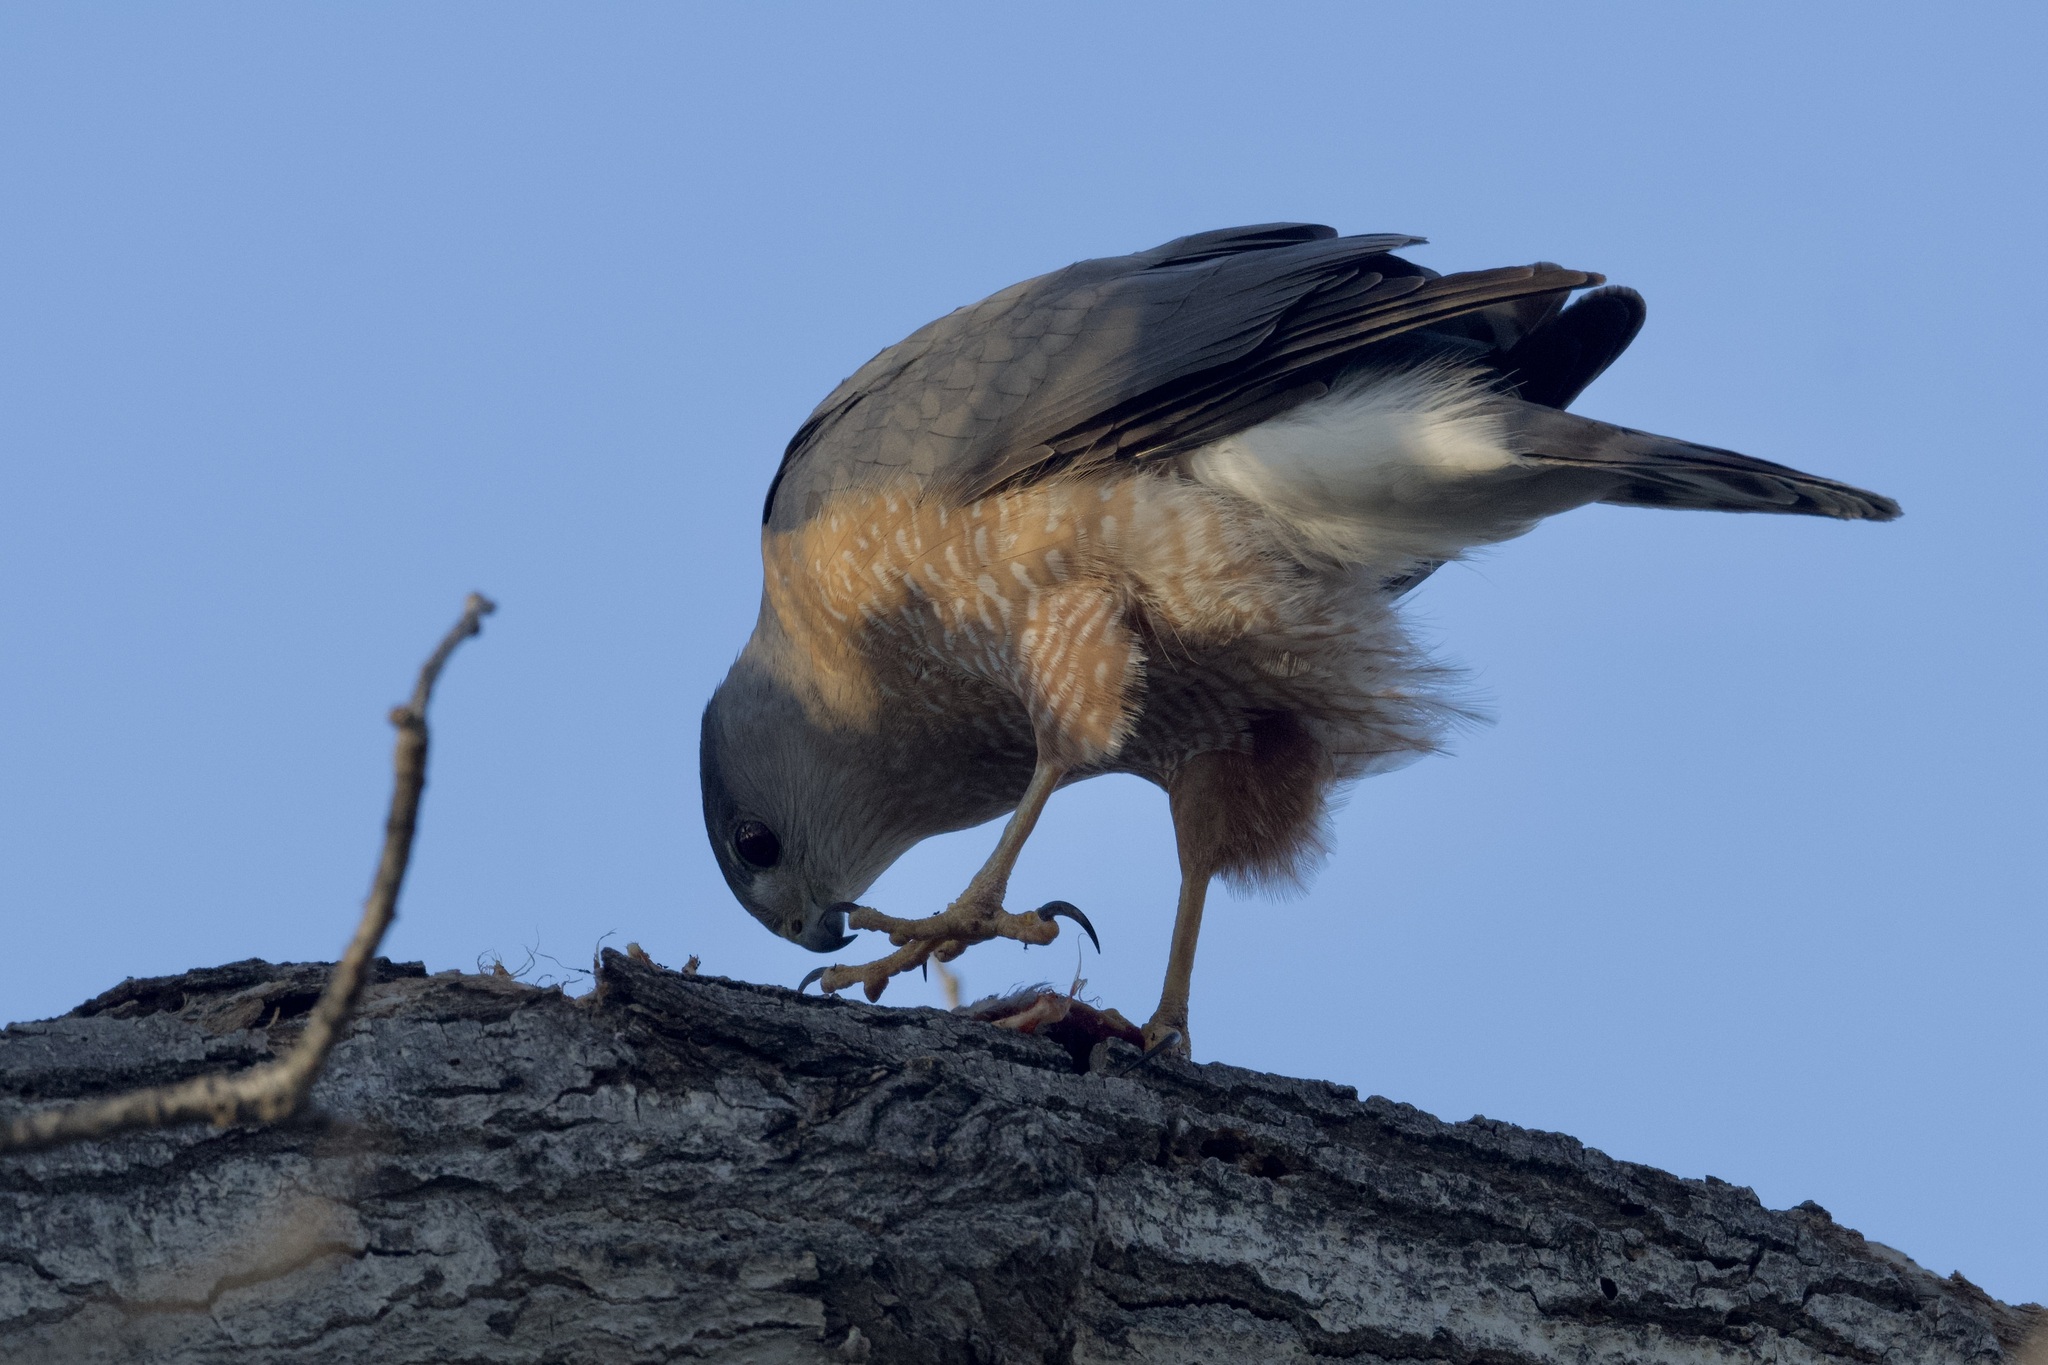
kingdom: Animalia
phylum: Chordata
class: Aves
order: Accipitriformes
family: Accipitridae
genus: Accipiter
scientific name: Accipiter cooperii
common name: Cooper's hawk
